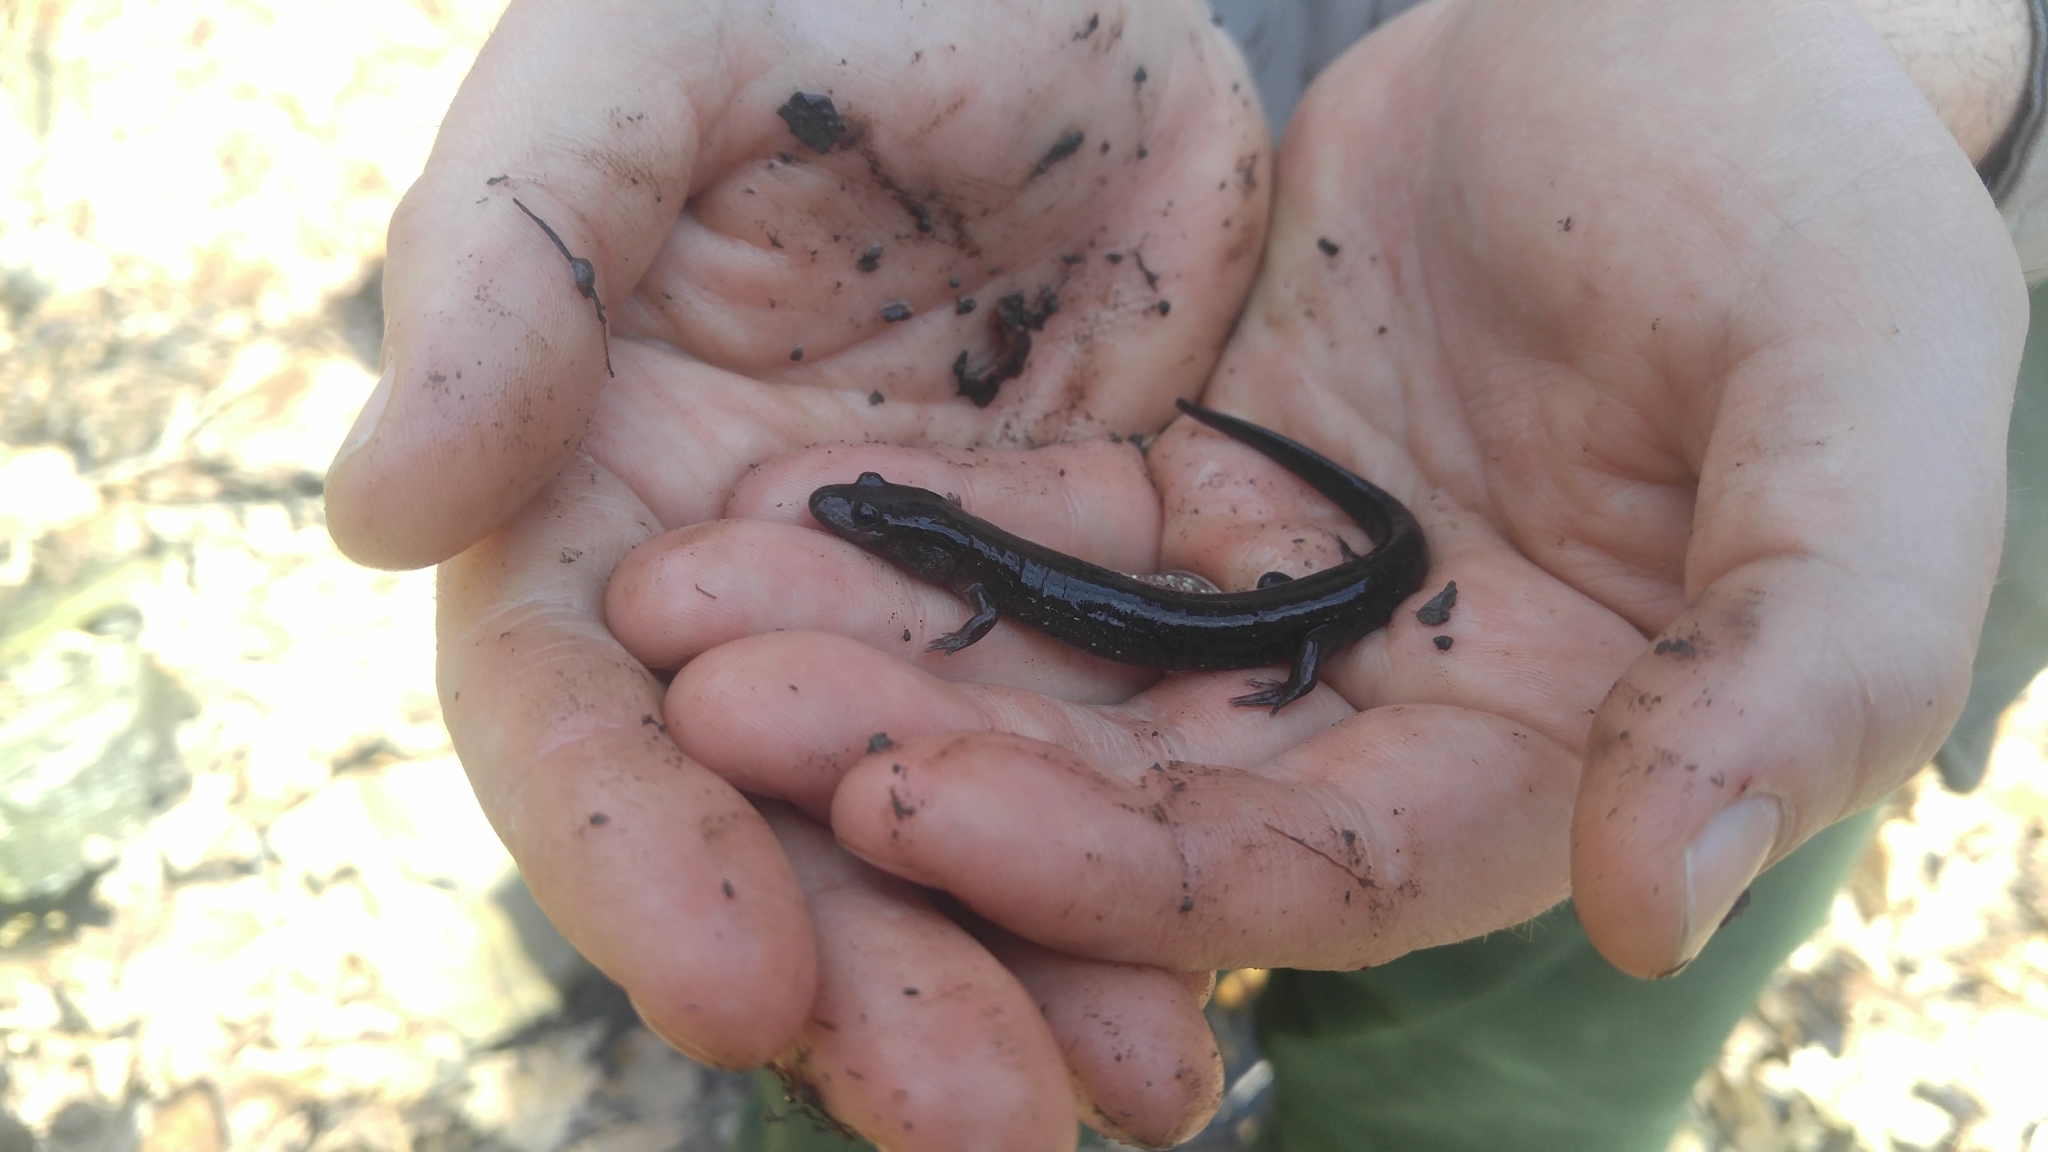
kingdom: Animalia
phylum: Chordata
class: Amphibia
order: Caudata
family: Plethodontidae
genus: Desmognathus
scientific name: Desmognathus fuscus
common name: Northern dusky salamander
